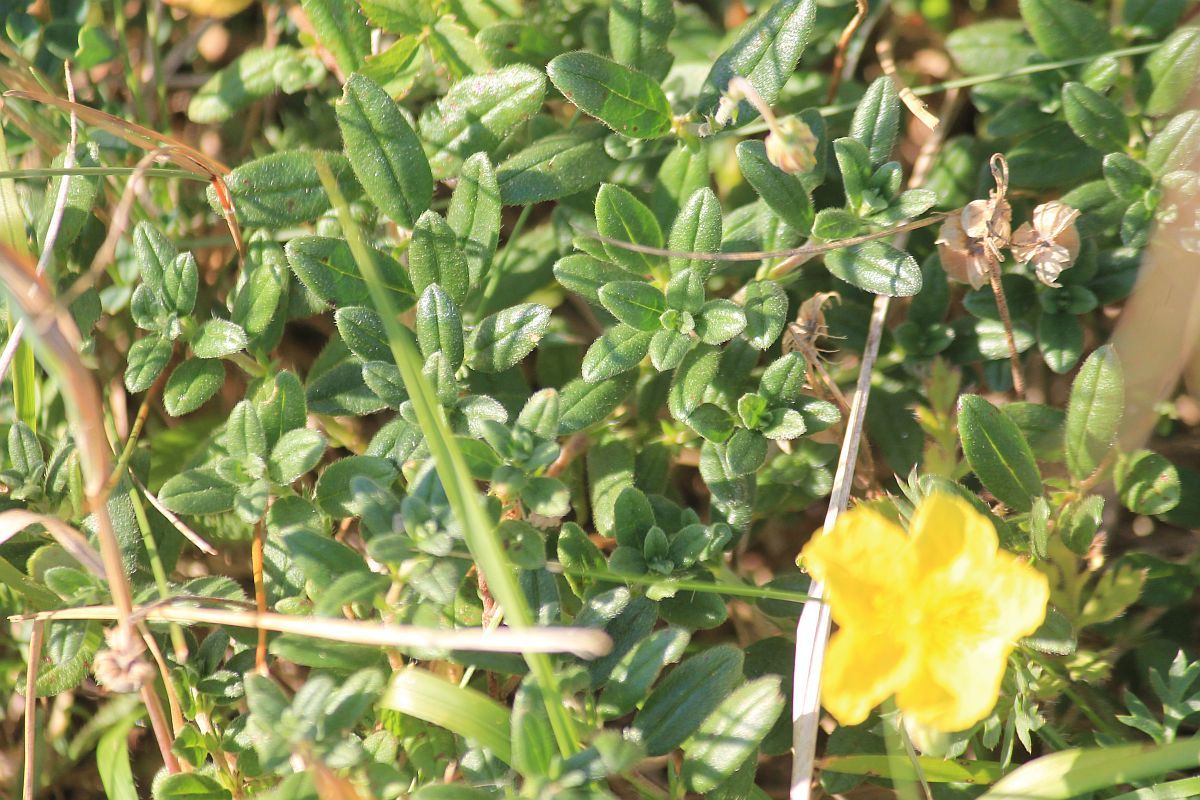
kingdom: Plantae
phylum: Tracheophyta
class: Magnoliopsida
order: Malvales
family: Cistaceae
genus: Helianthemum
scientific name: Helianthemum nummularium
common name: Common rock-rose
